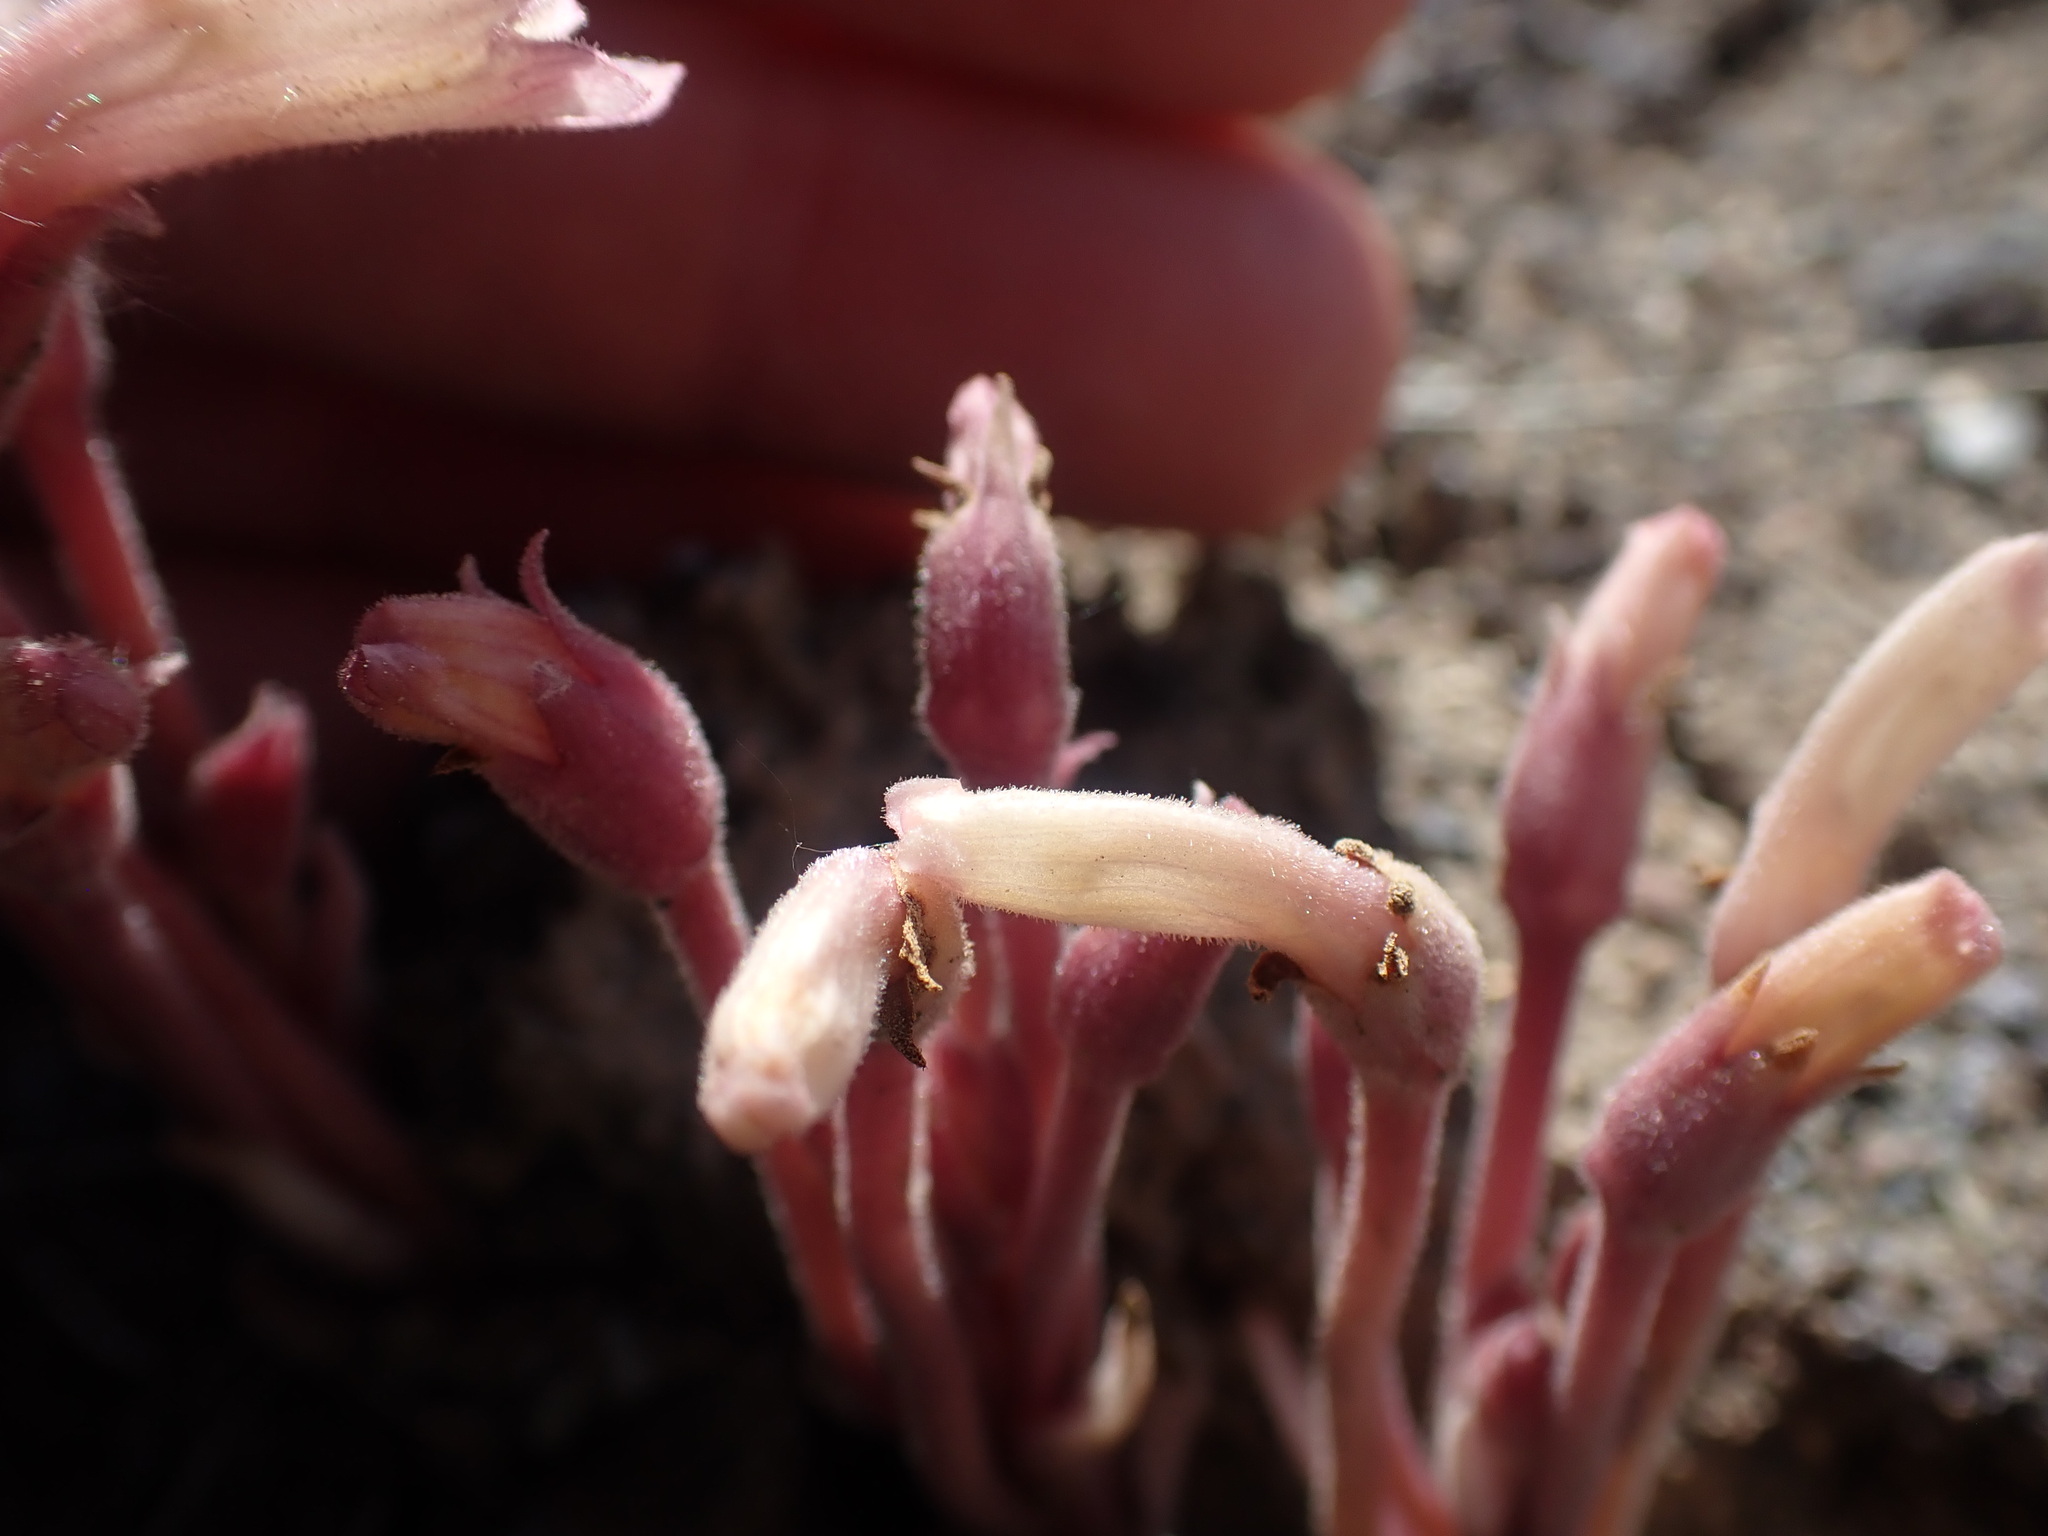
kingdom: Plantae
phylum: Tracheophyta
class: Magnoliopsida
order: Lamiales
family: Orobanchaceae
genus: Aphyllon
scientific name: Aphyllon fasciculatum
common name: Clustered broomrape
